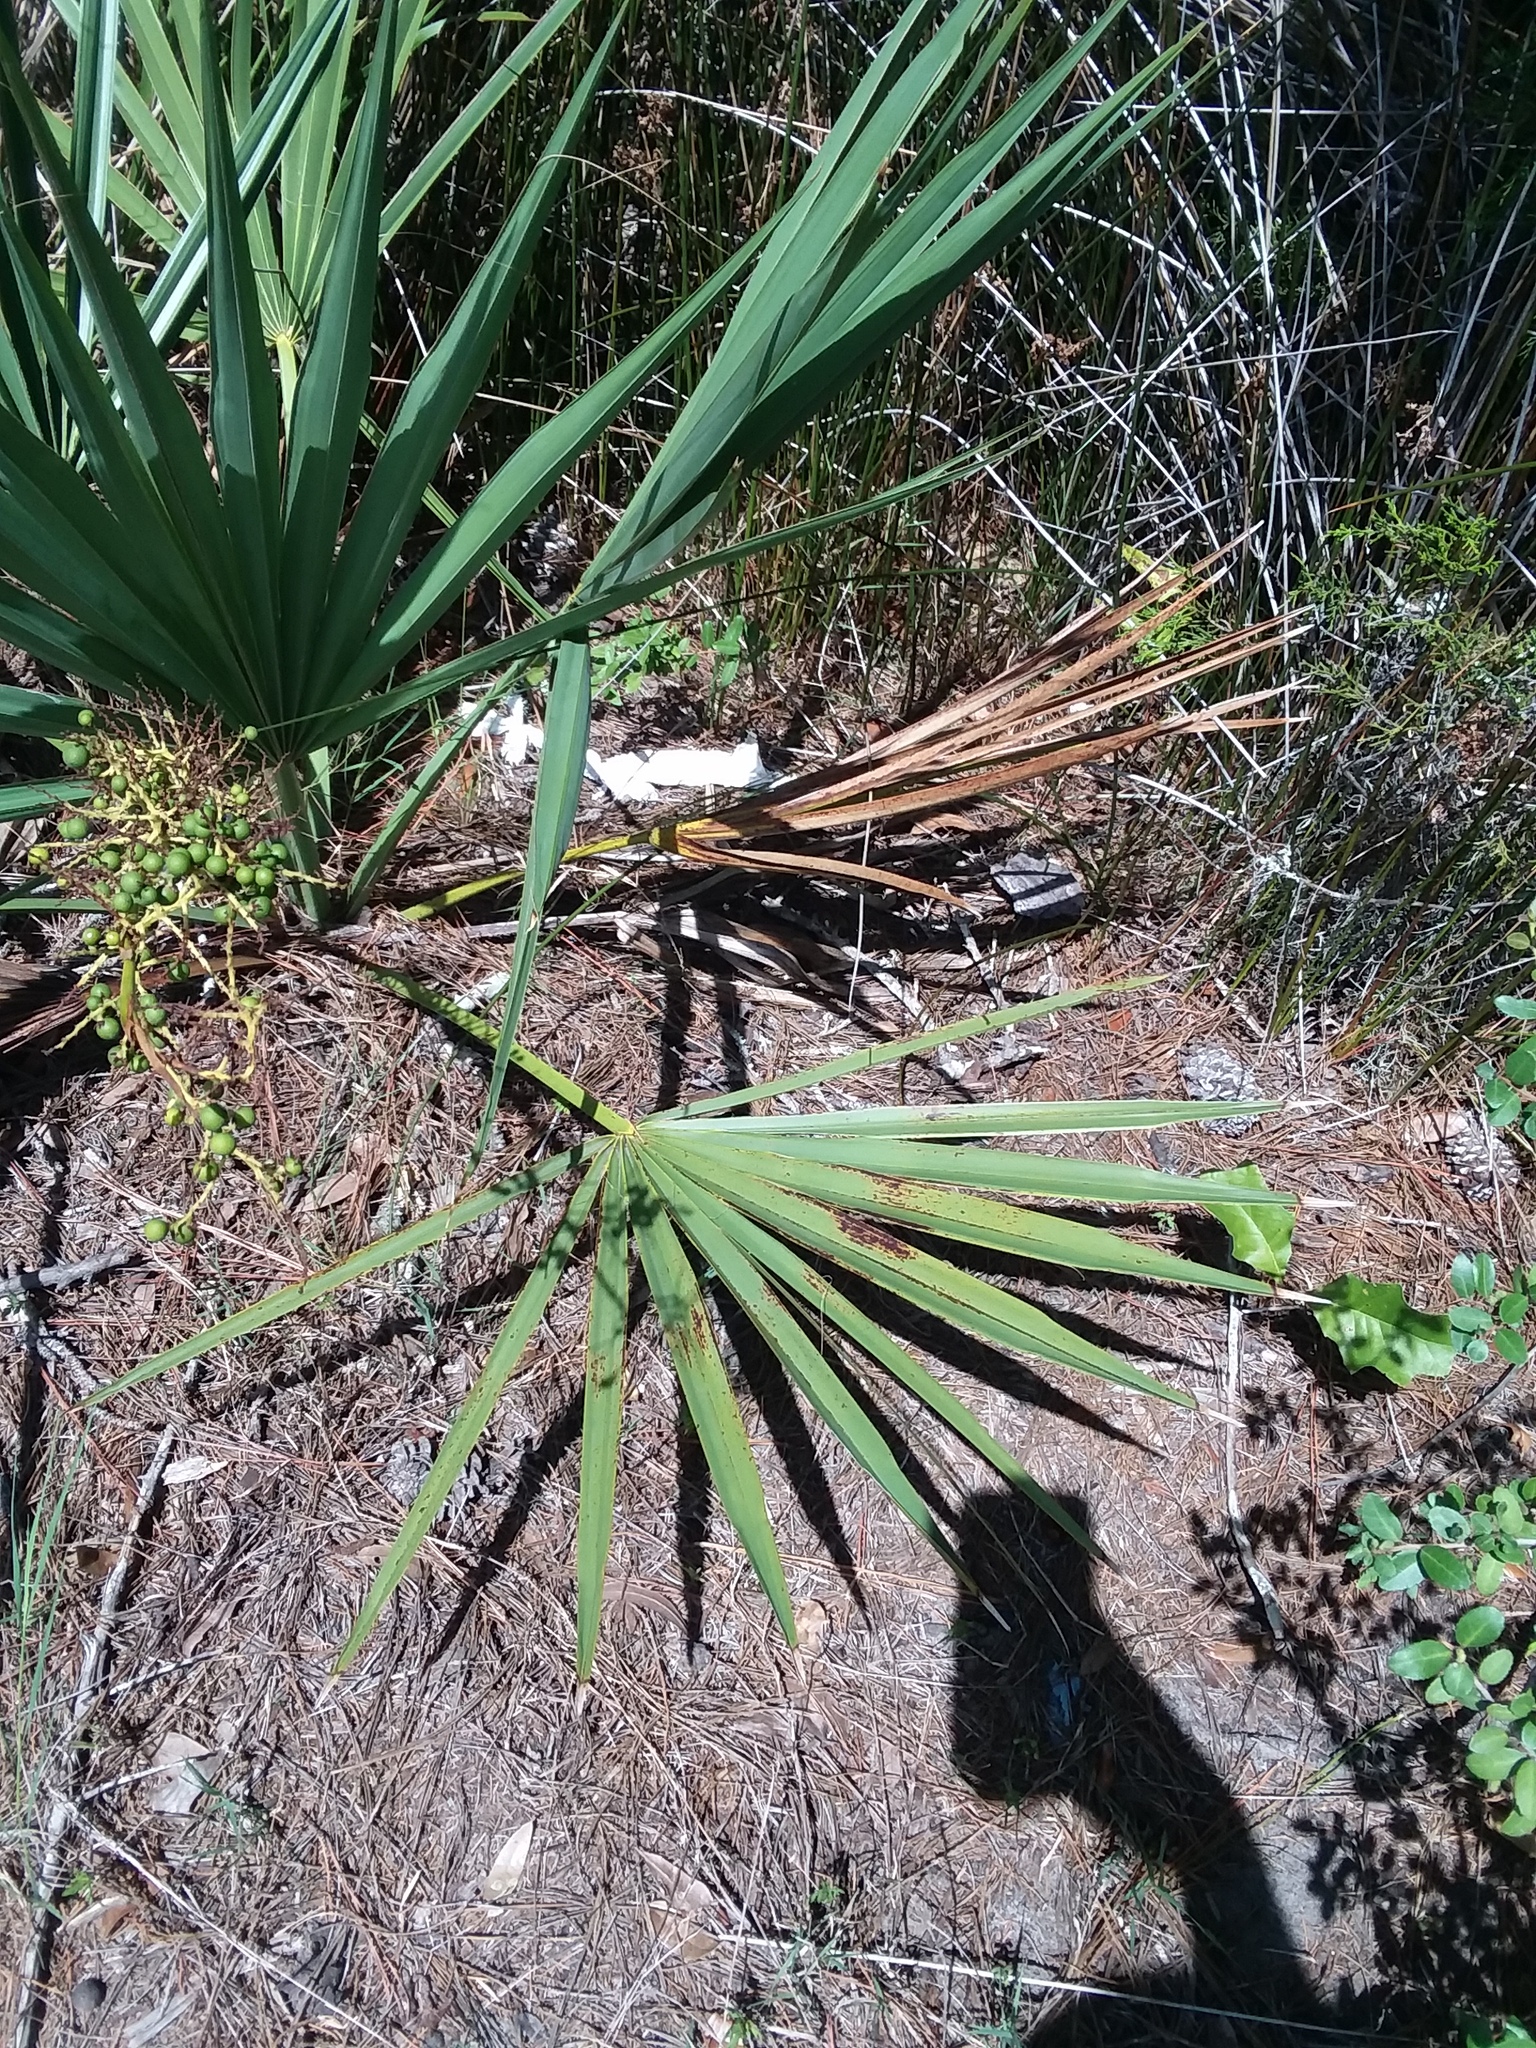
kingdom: Plantae
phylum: Tracheophyta
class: Liliopsida
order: Arecales
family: Arecaceae
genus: Sabal
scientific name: Sabal minor
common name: Dwarf palmetto
